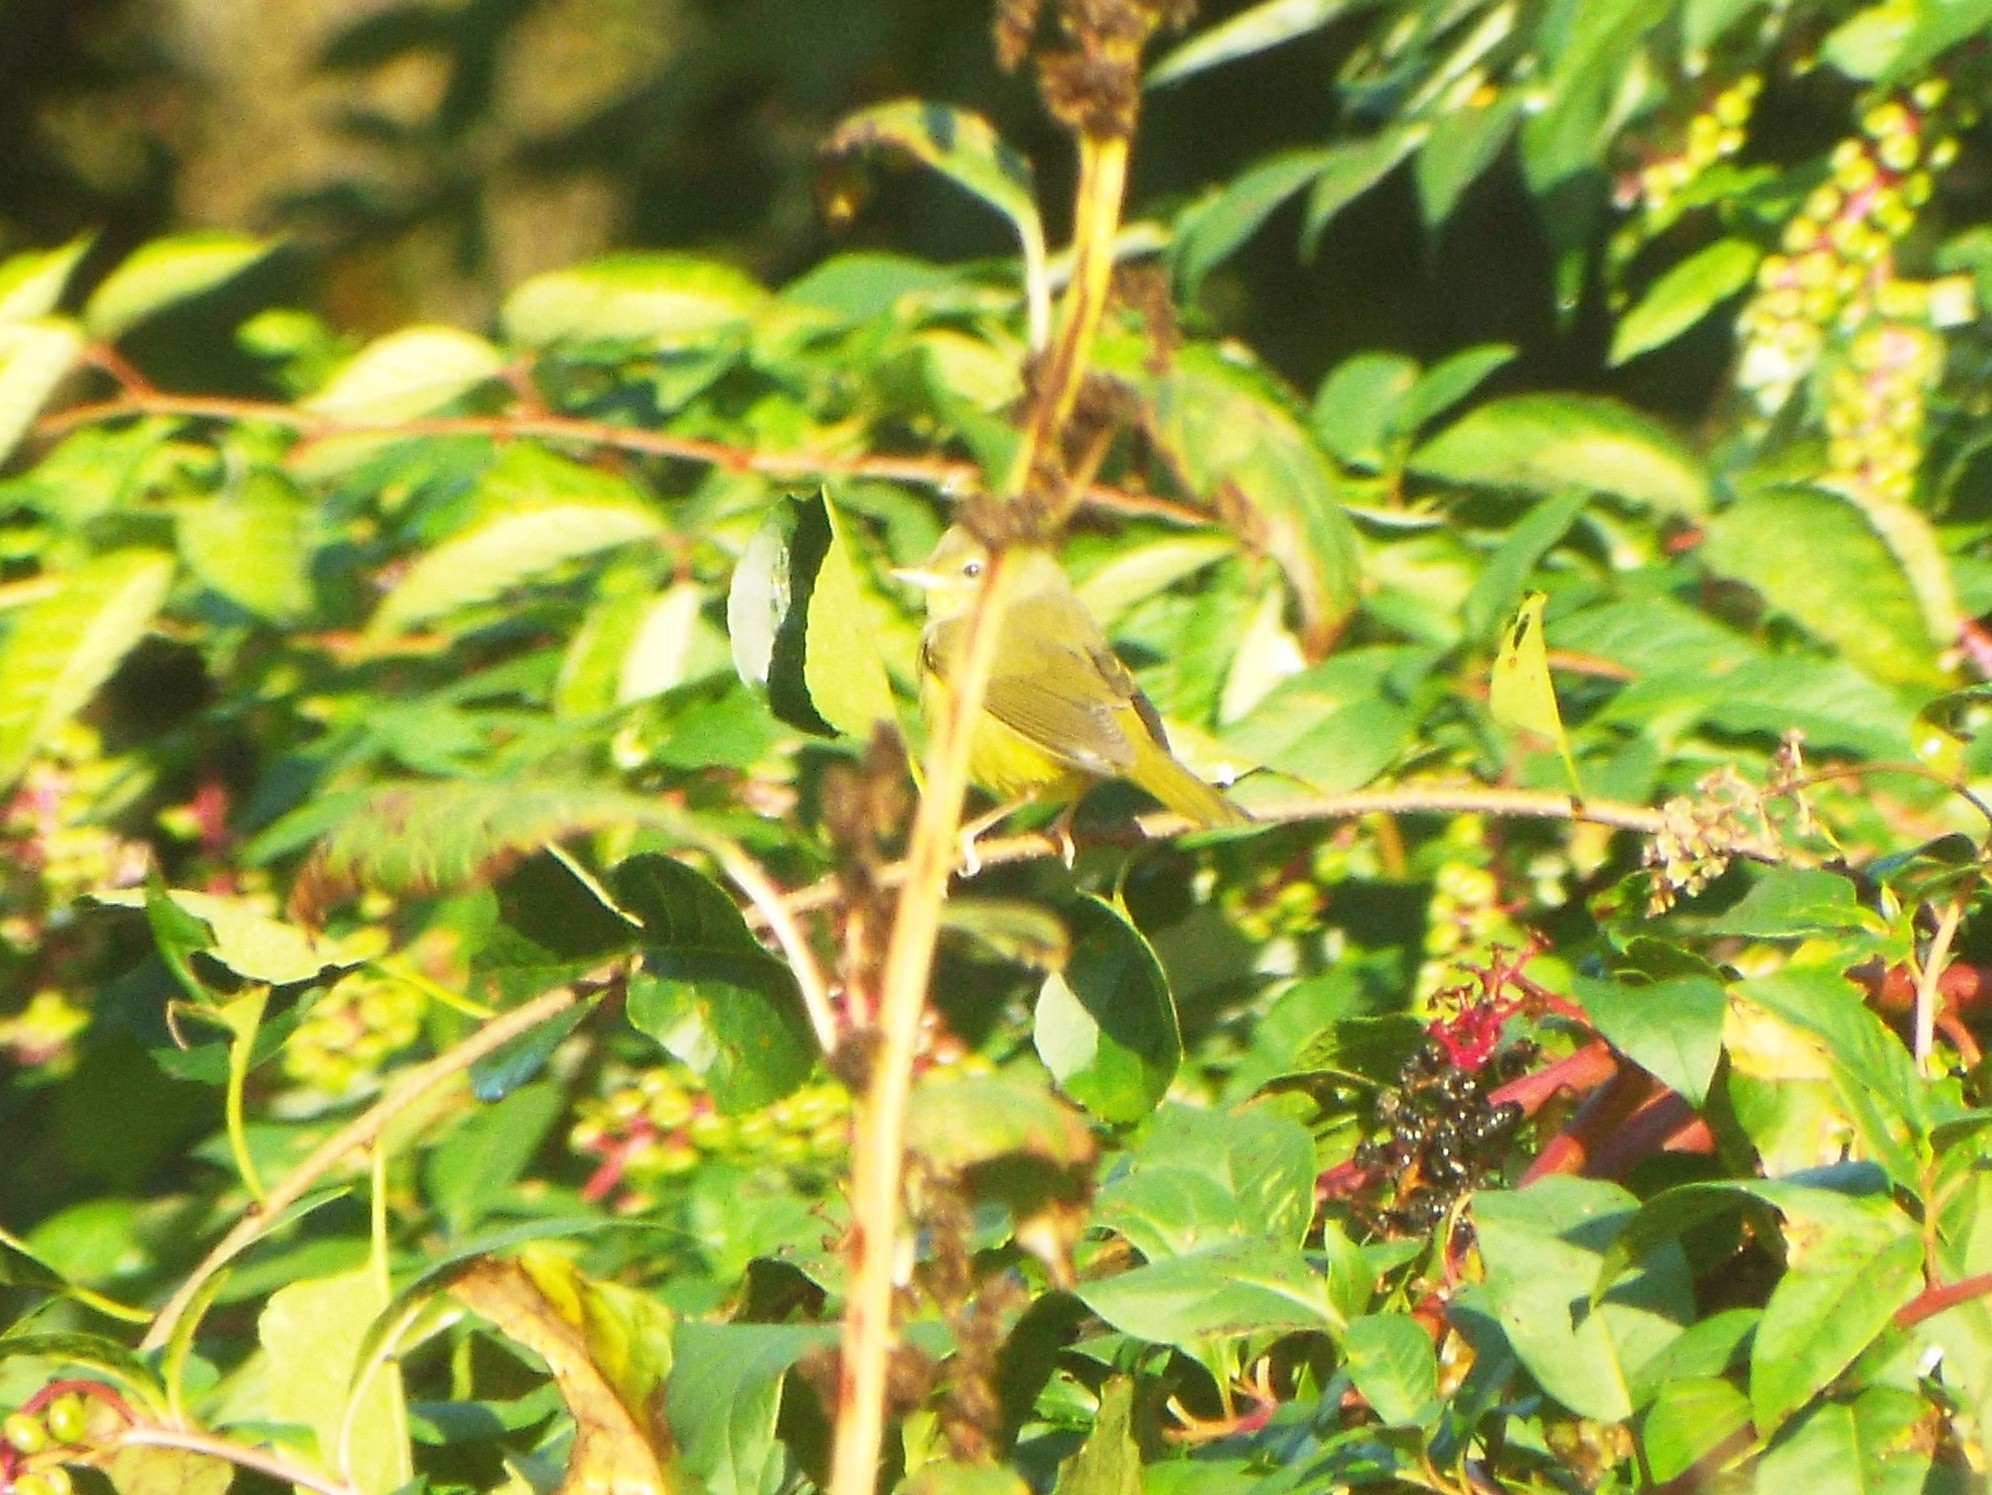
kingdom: Animalia
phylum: Chordata
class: Aves
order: Passeriformes
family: Parulidae
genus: Leiothlypis
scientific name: Leiothlypis ruficapilla
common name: Nashville warbler
